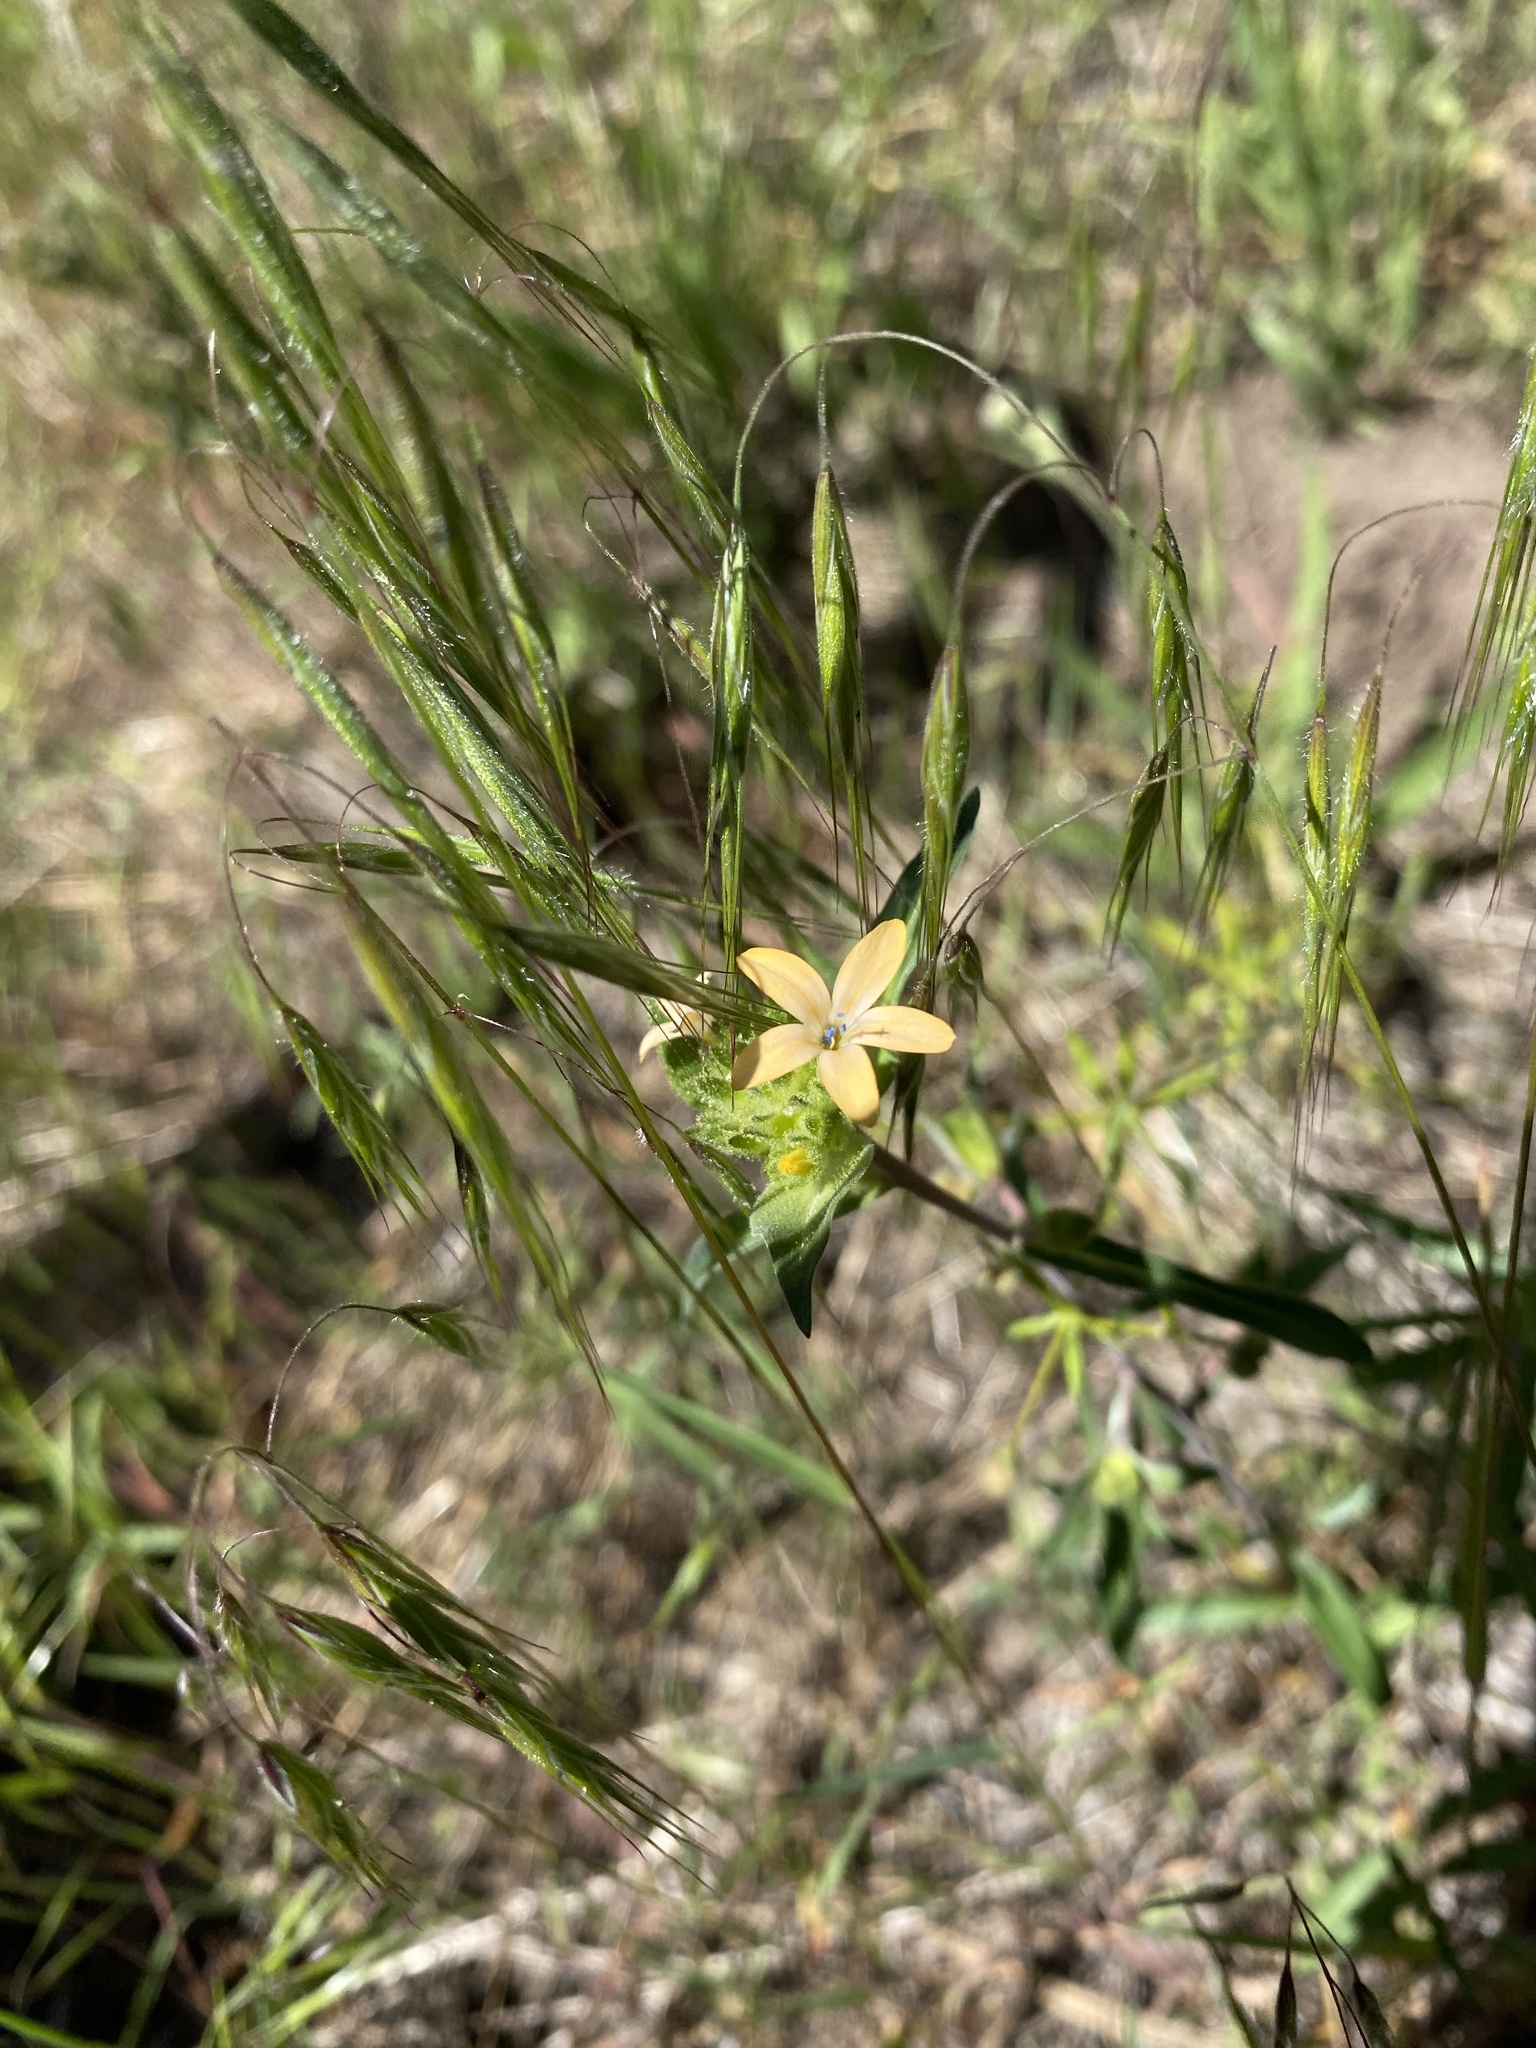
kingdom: Plantae
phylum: Tracheophyta
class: Magnoliopsida
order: Ericales
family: Polemoniaceae
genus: Collomia
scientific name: Collomia grandiflora
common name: California strawflower
